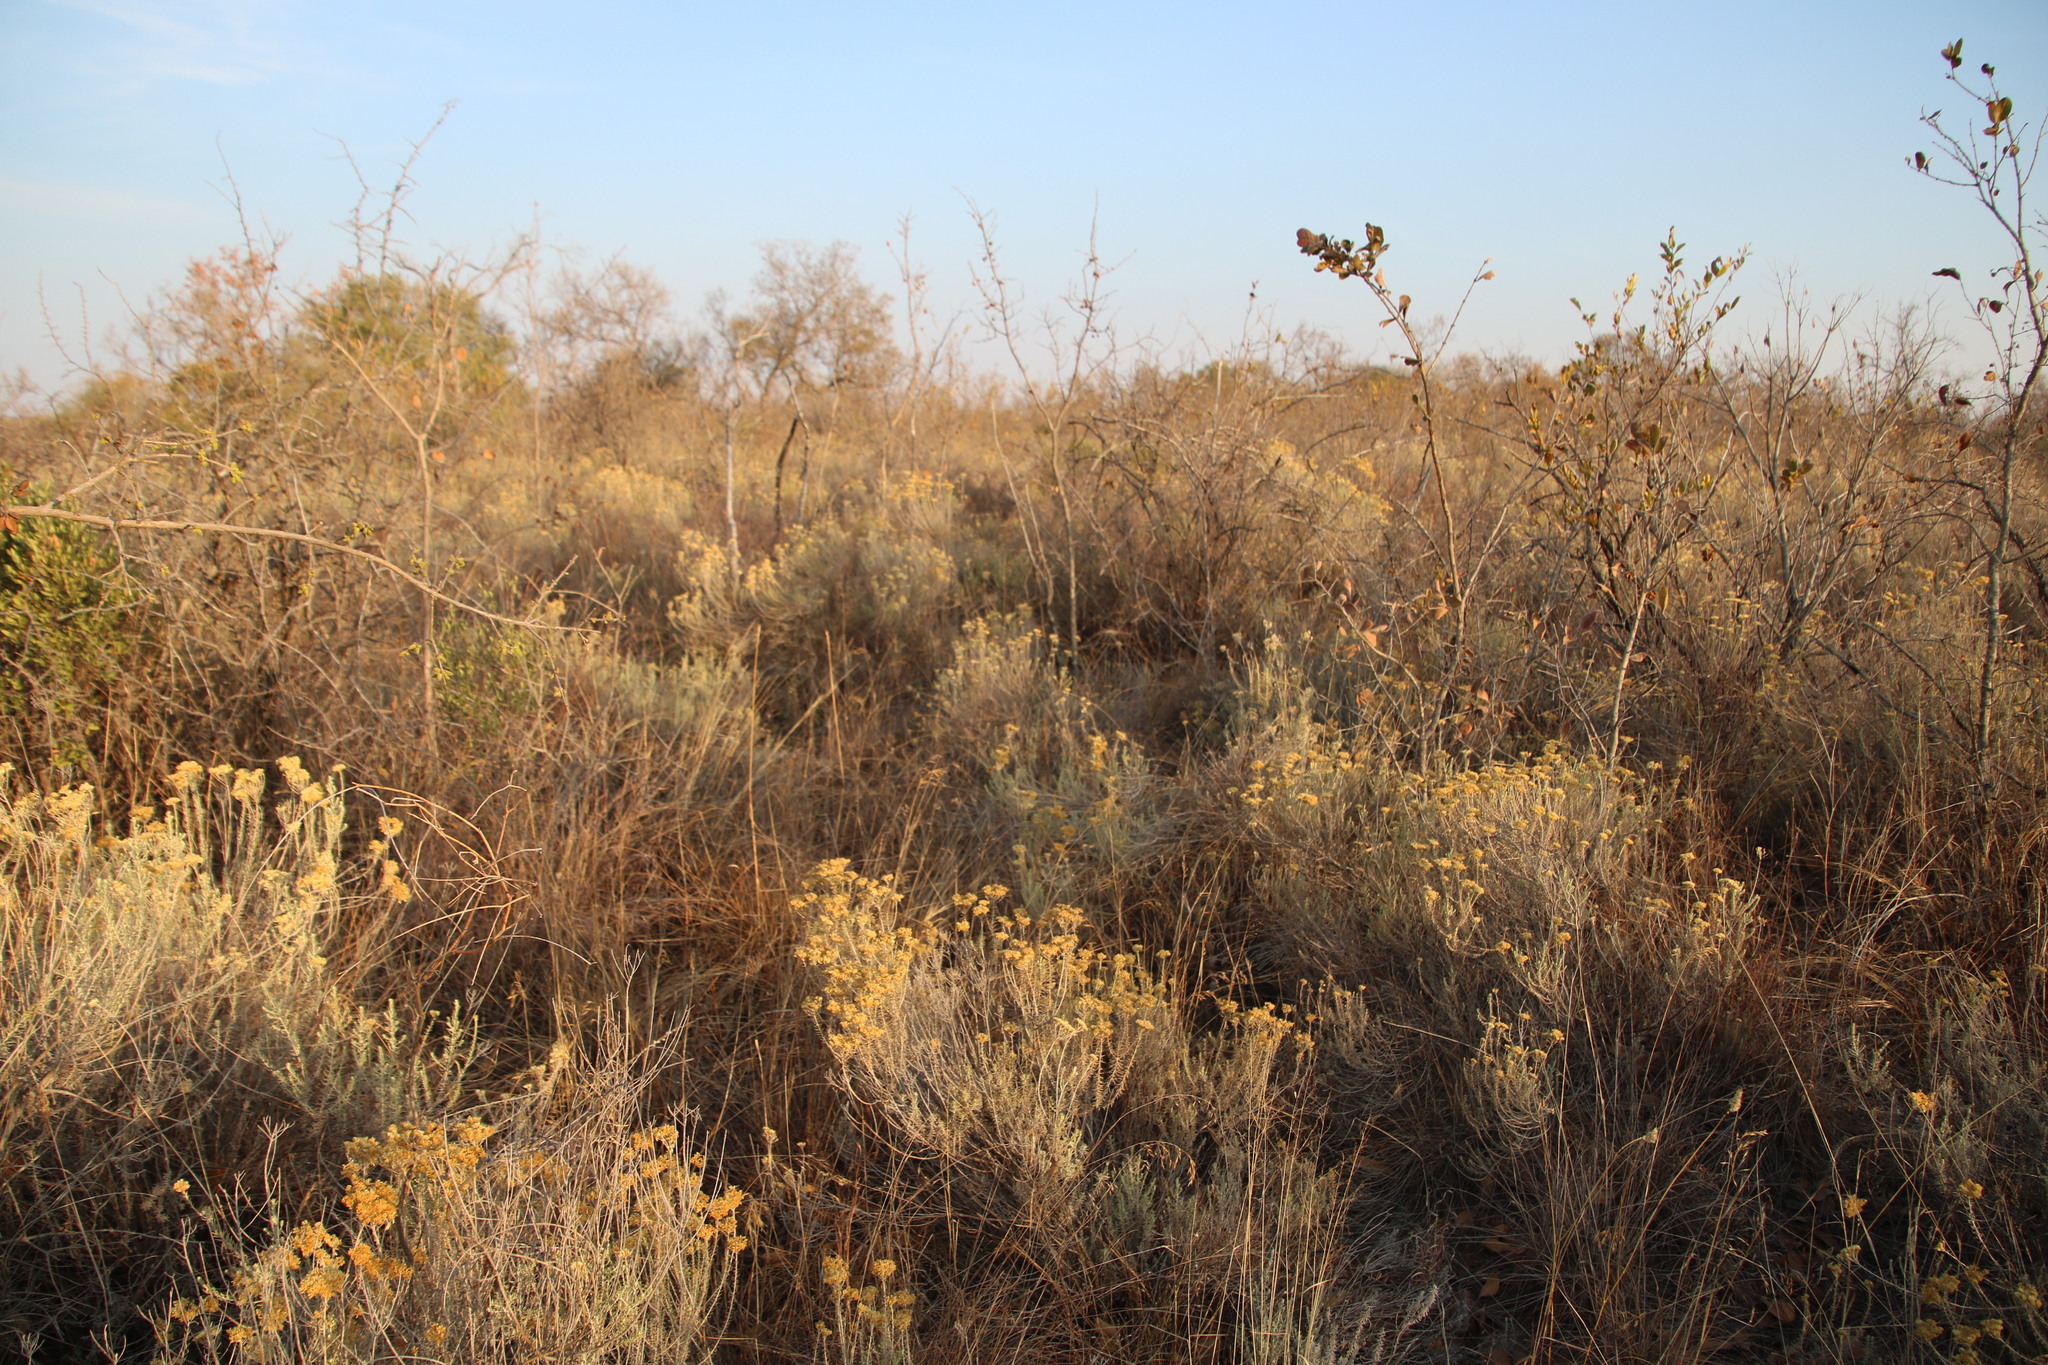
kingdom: Plantae
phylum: Tracheophyta
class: Magnoliopsida
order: Asterales
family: Asteraceae
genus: Helichrysum
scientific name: Helichrysum kraussii
